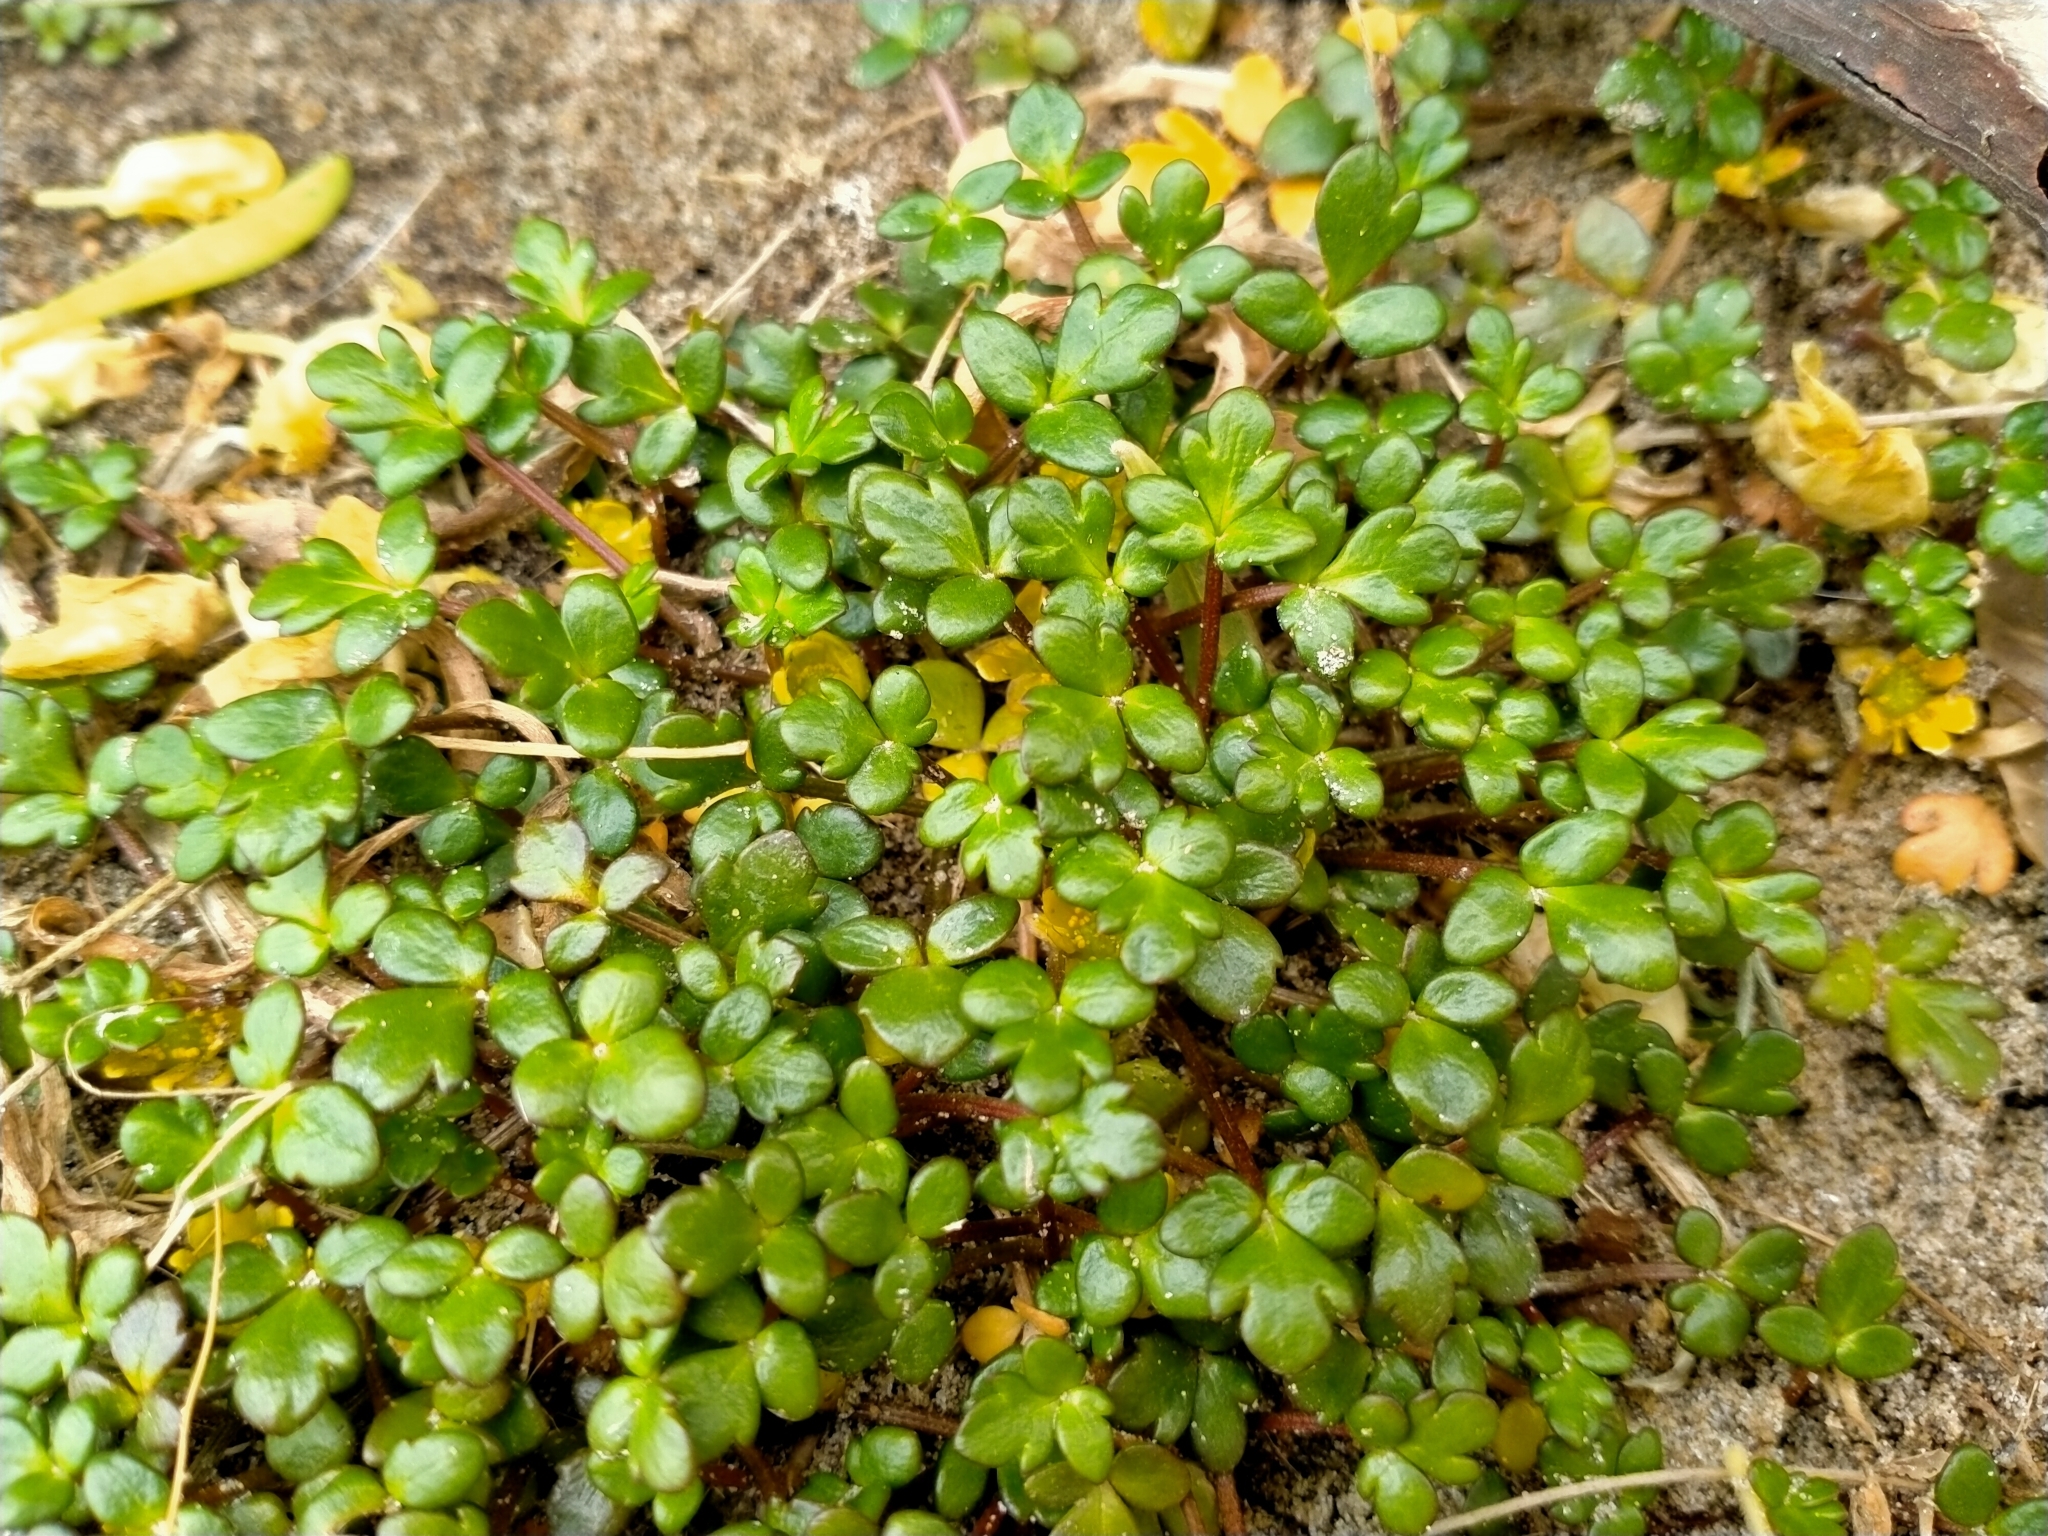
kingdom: Plantae
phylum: Tracheophyta
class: Magnoliopsida
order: Ranunculales
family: Ranunculaceae
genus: Ranunculus
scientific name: Ranunculus acaulis
